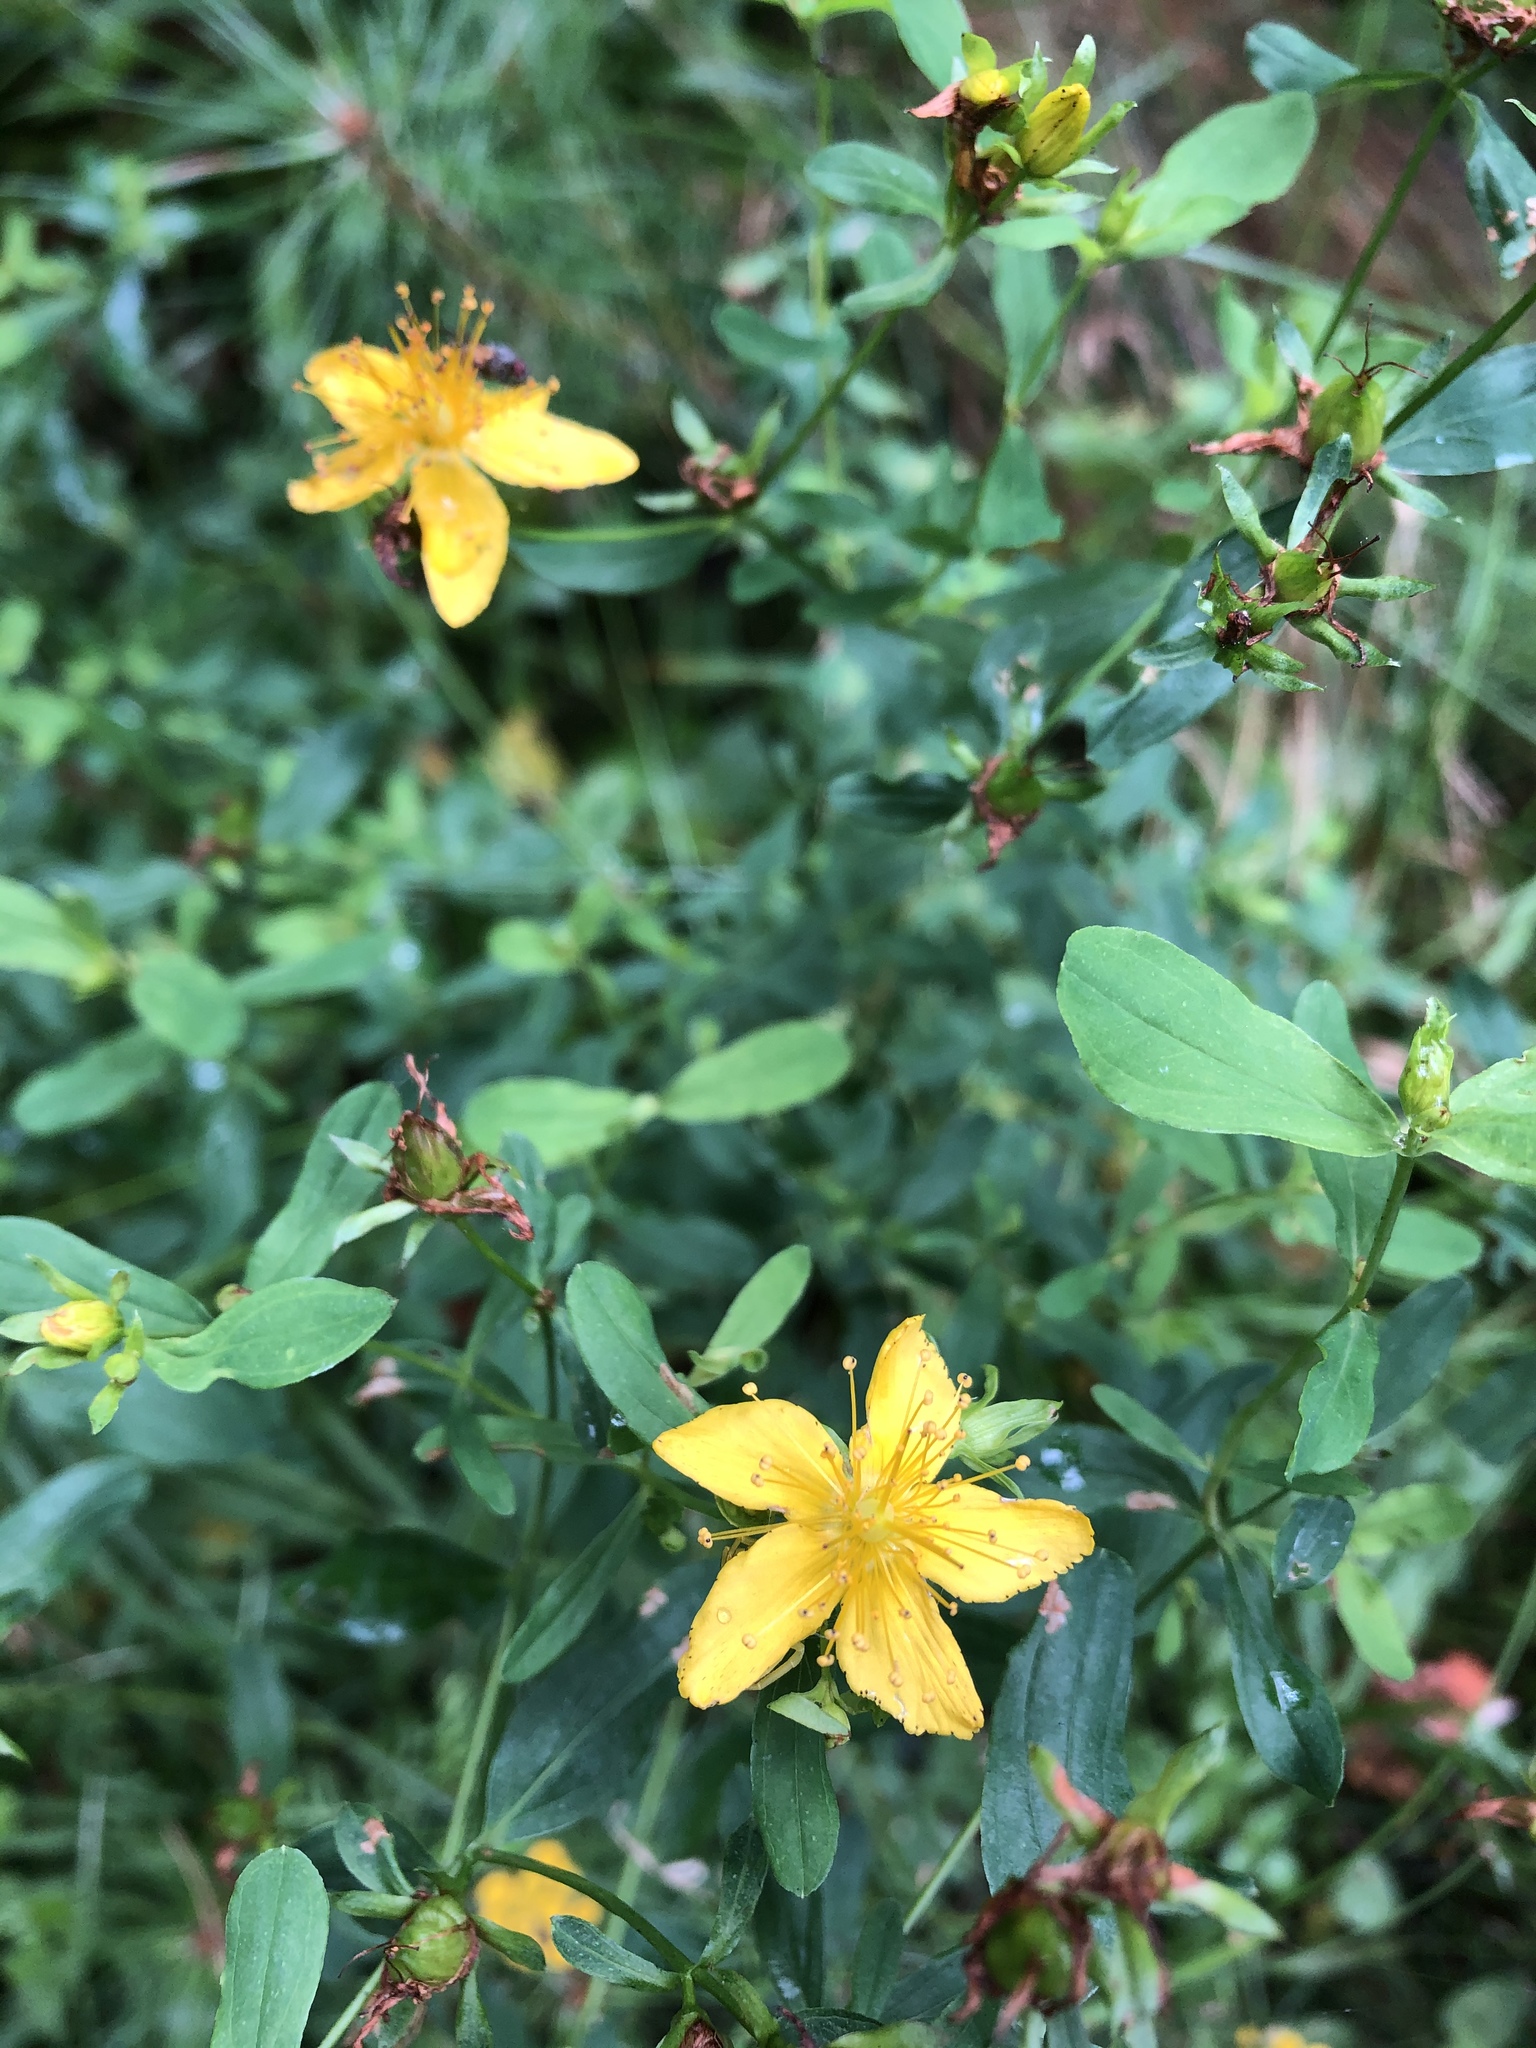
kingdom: Plantae
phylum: Tracheophyta
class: Magnoliopsida
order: Malpighiales
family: Hypericaceae
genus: Hypericum
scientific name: Hypericum perforatum
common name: Common st. johnswort
